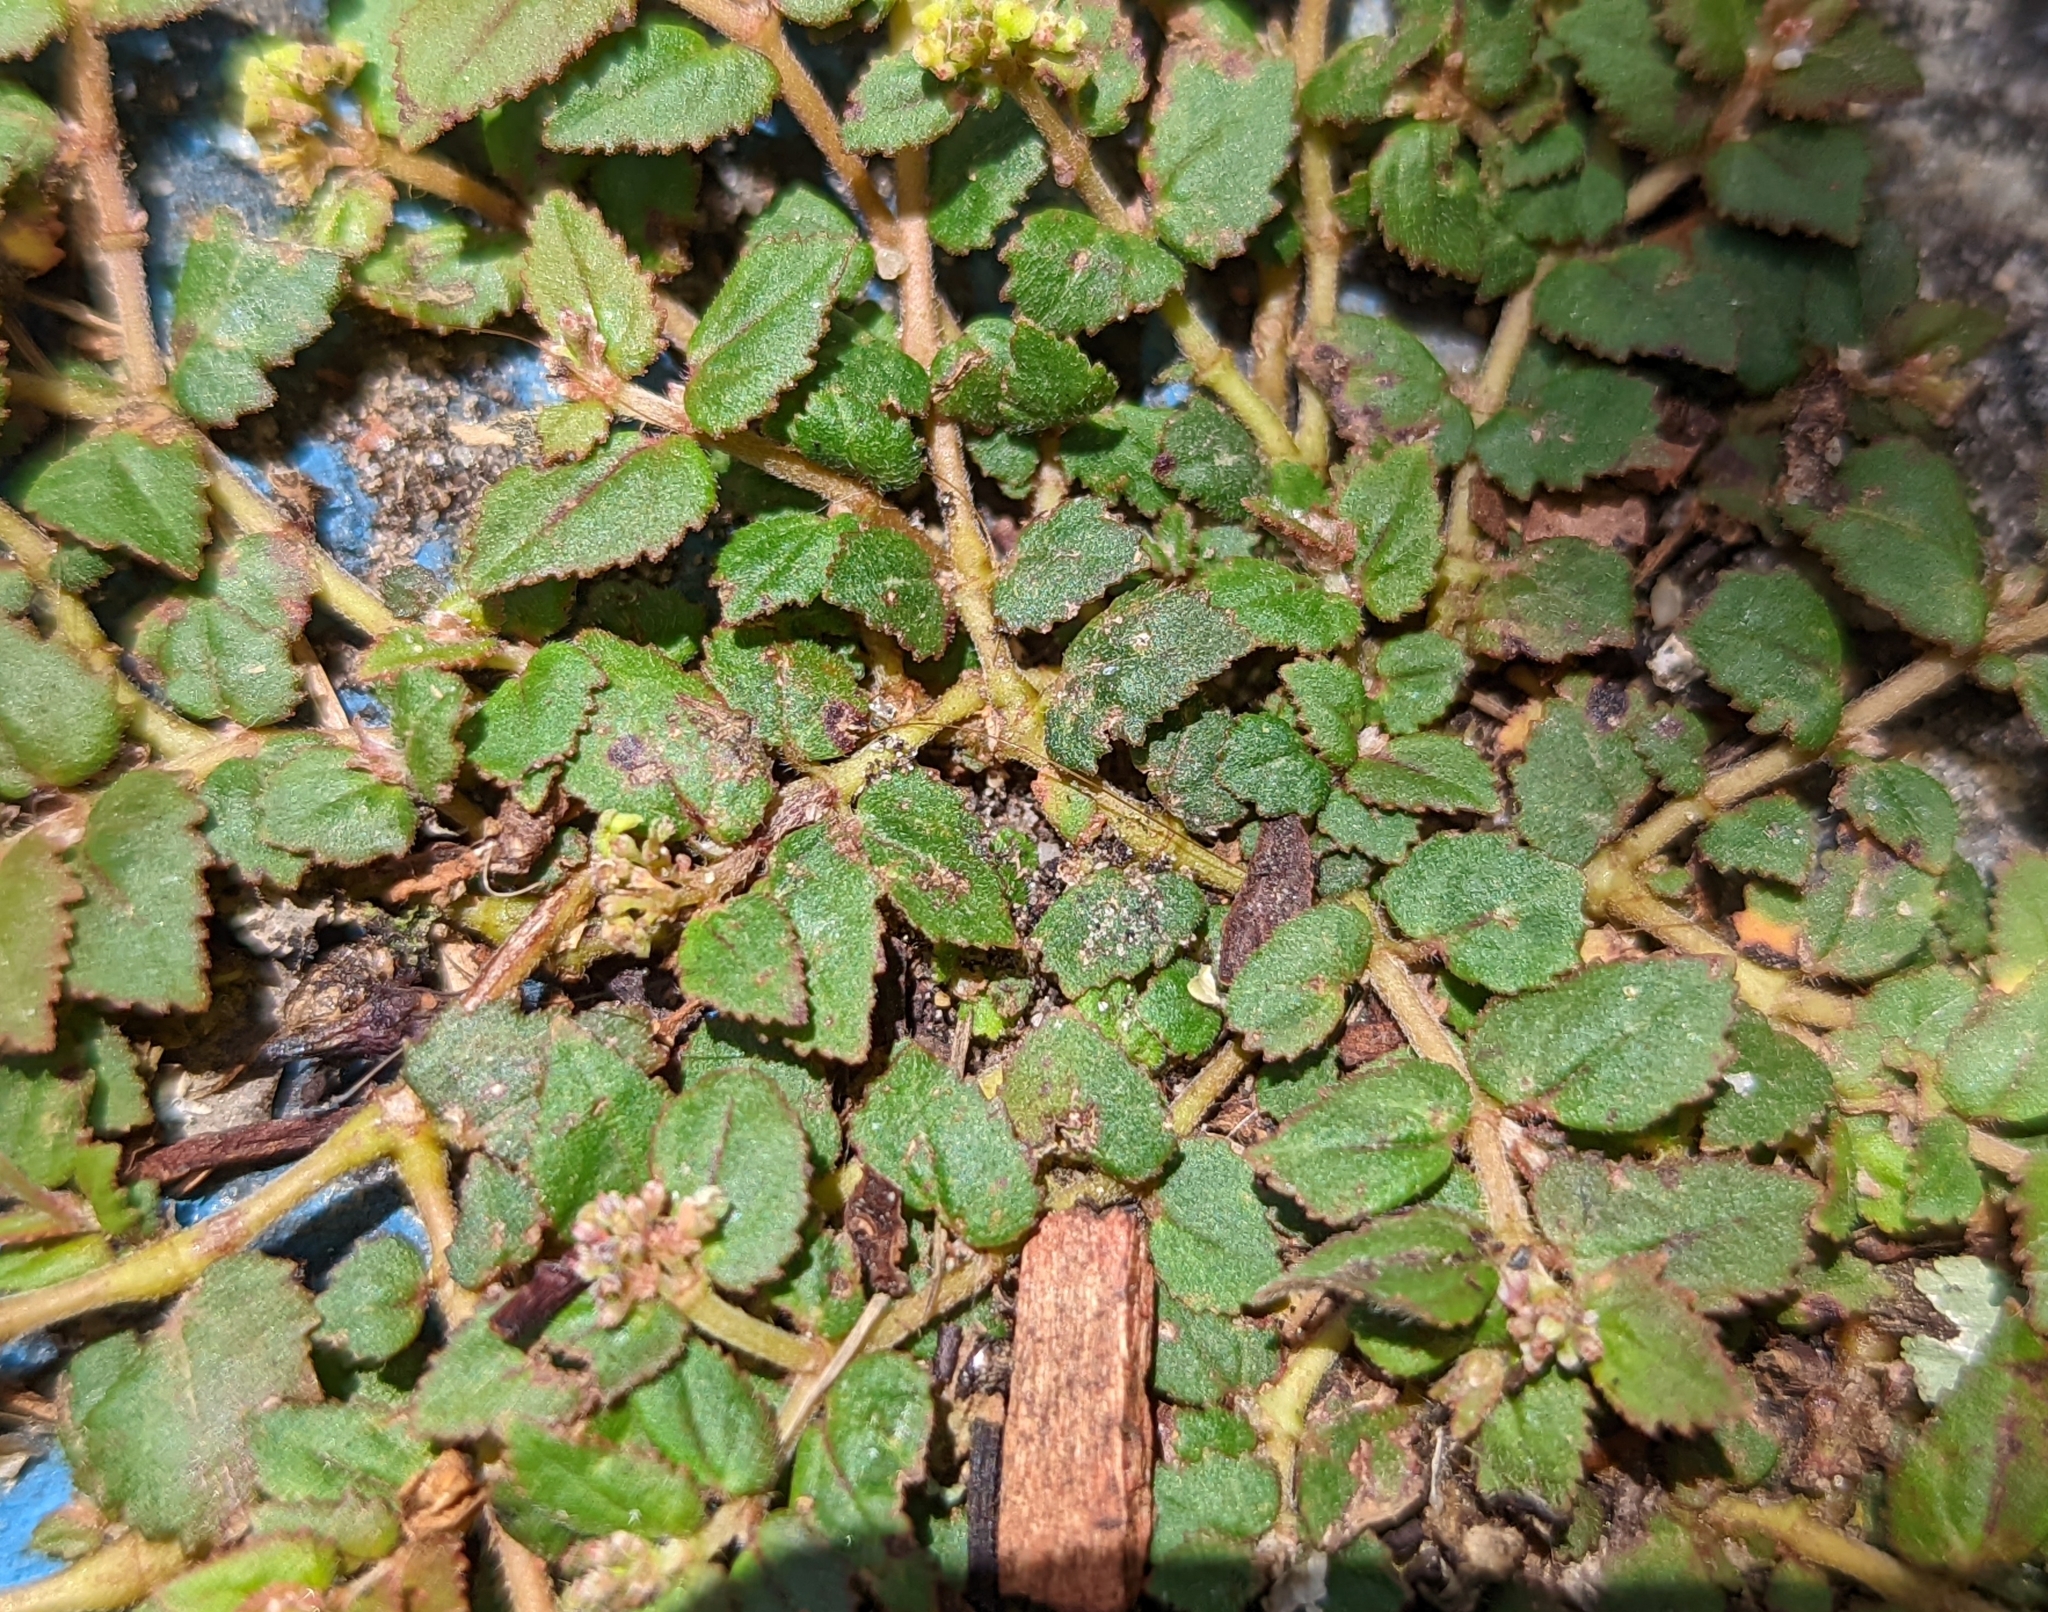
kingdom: Plantae
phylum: Tracheophyta
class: Magnoliopsida
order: Malpighiales
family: Euphorbiaceae
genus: Euphorbia
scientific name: Euphorbia ophthalmica
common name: Florida hammock sandmat
